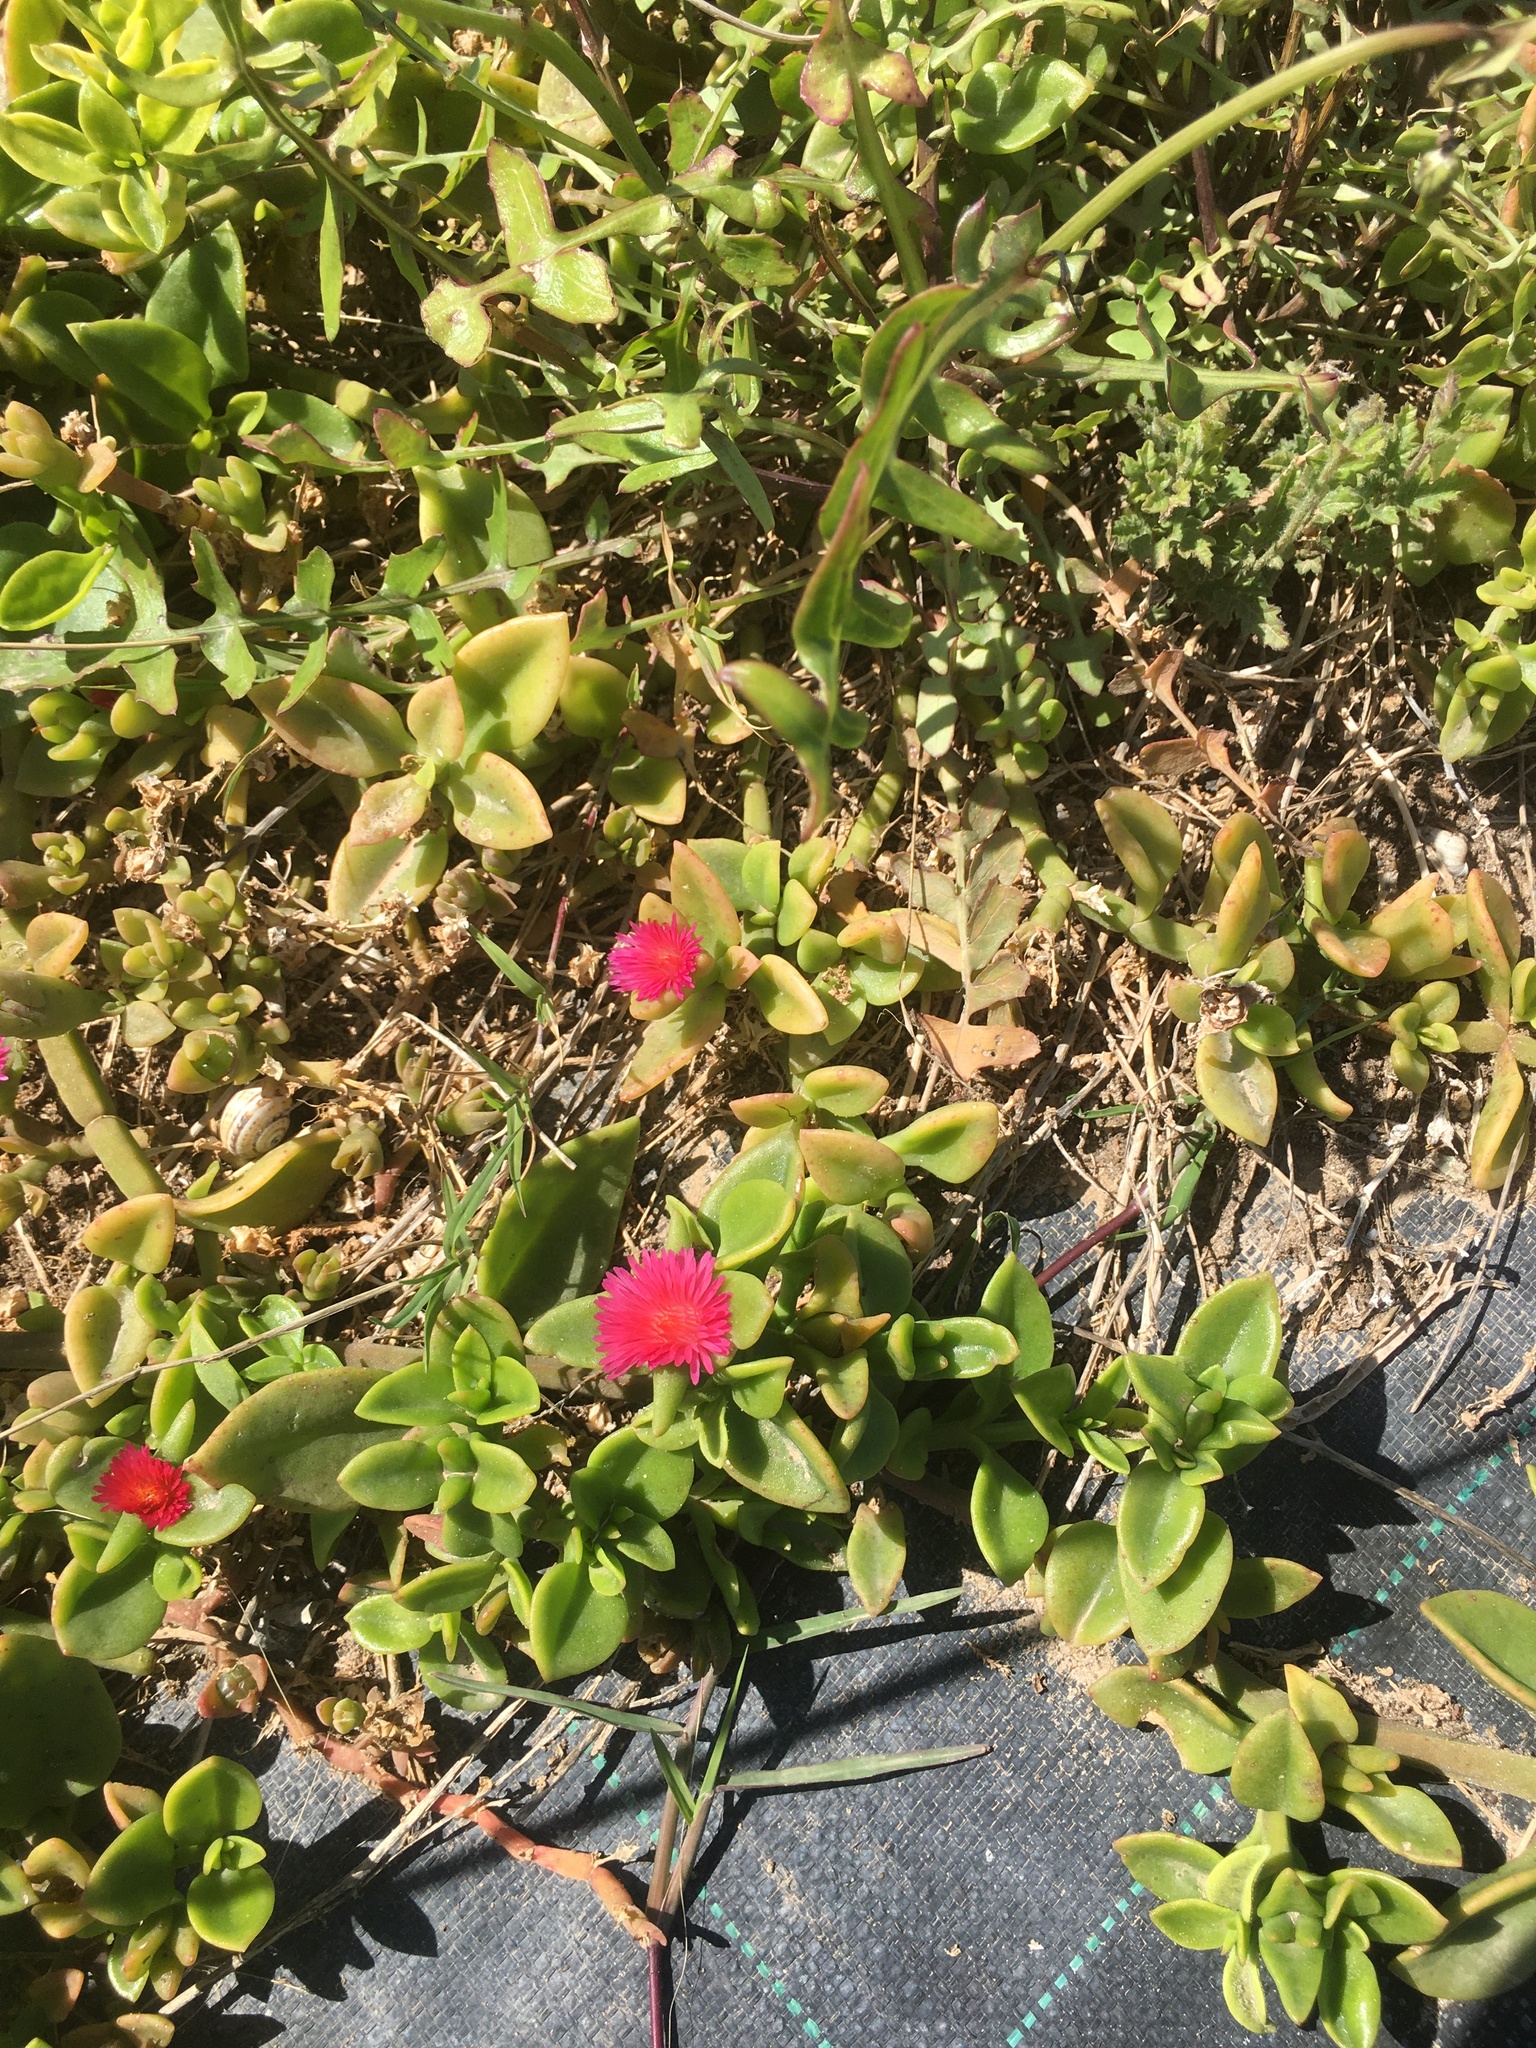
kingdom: Plantae
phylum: Tracheophyta
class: Magnoliopsida
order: Caryophyllales
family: Aizoaceae
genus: Mesembryanthemum
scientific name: Mesembryanthemum cordifolium
